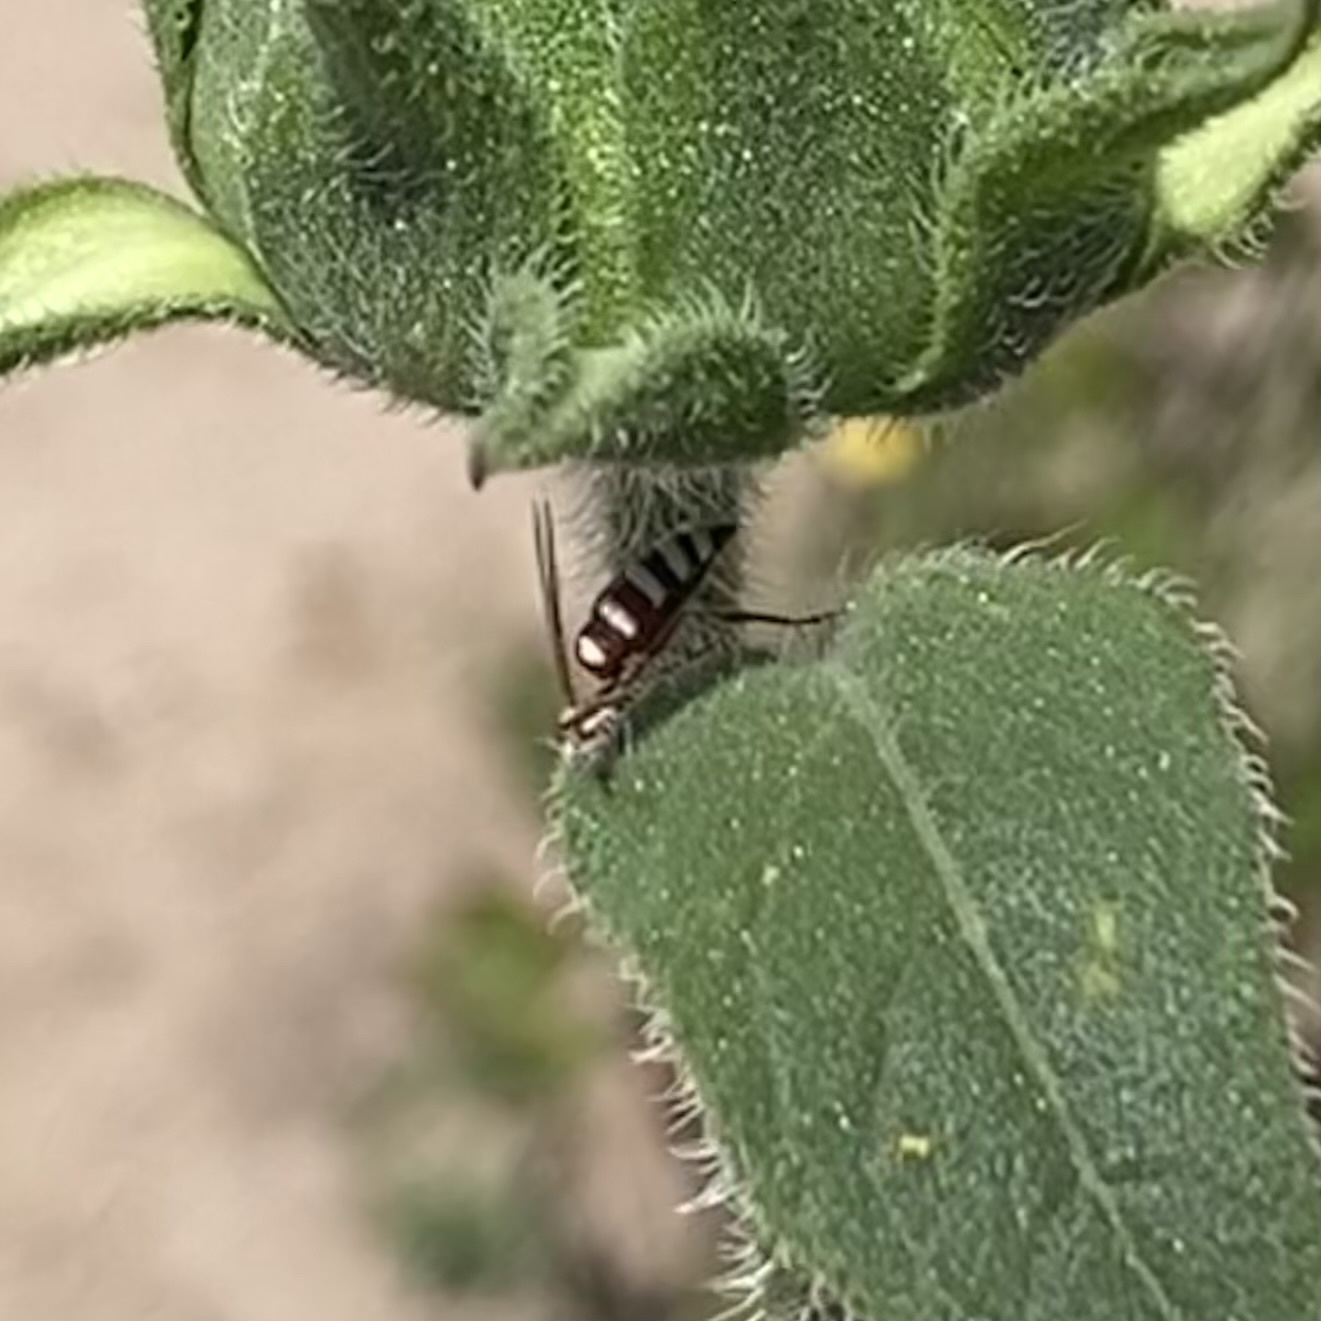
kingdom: Animalia
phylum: Arthropoda
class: Insecta
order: Hymenoptera
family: Crabronidae
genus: Clypeadon
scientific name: Clypeadon laticinctus
